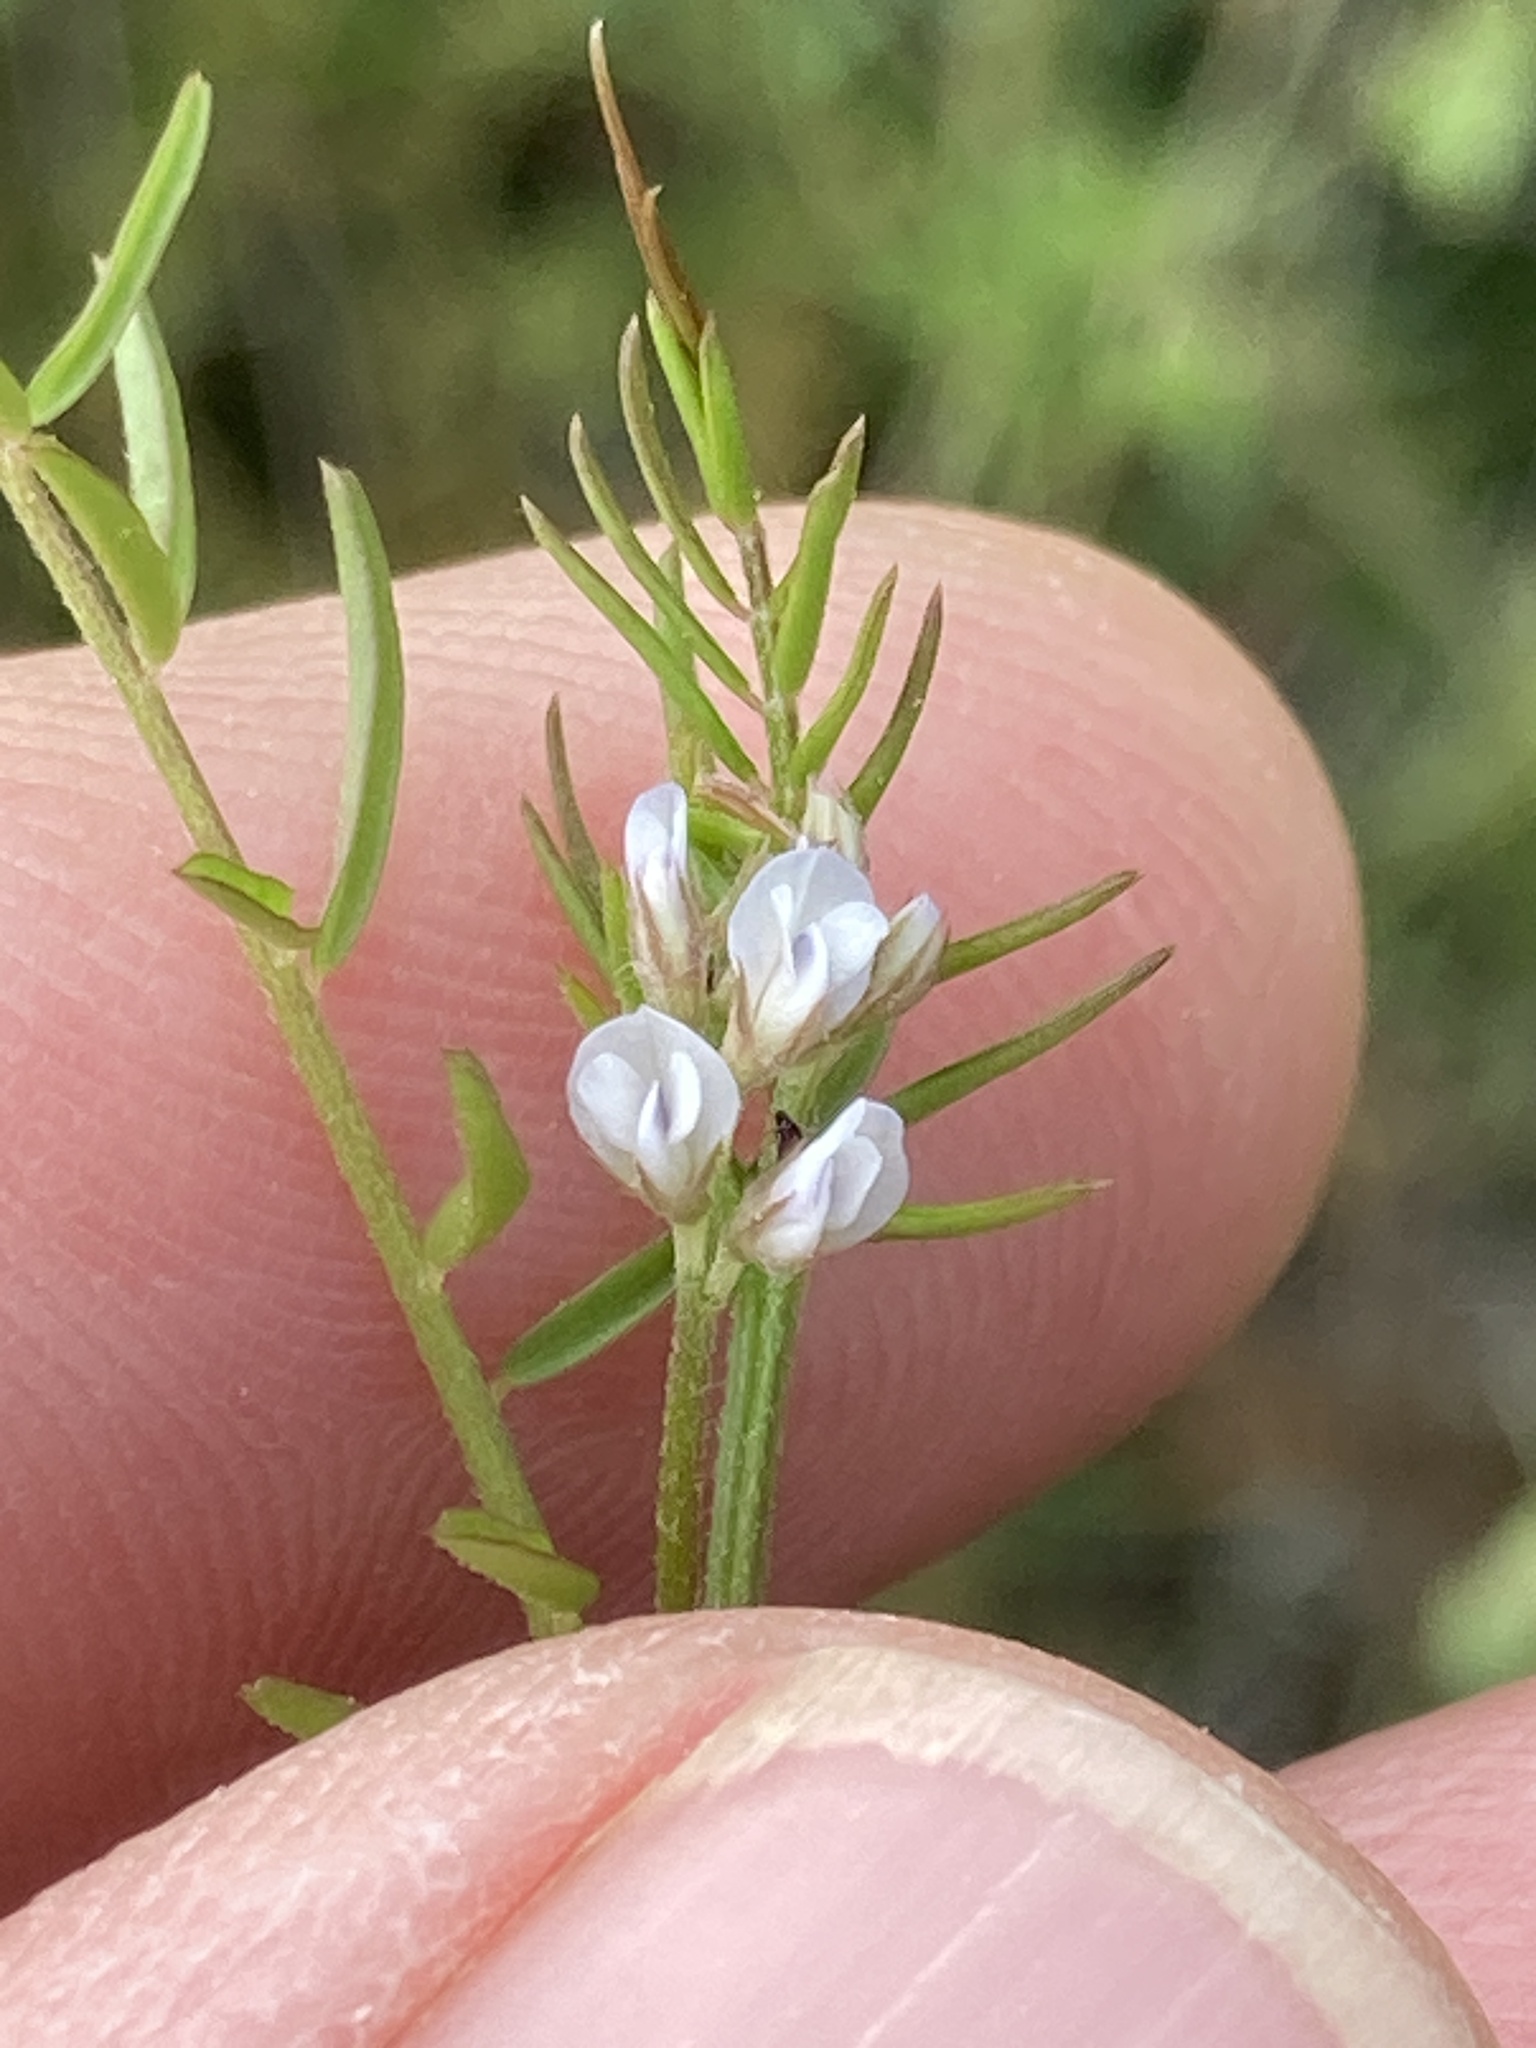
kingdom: Plantae
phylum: Tracheophyta
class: Magnoliopsida
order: Fabales
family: Fabaceae
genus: Vicia
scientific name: Vicia hirsuta
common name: Tiny vetch
